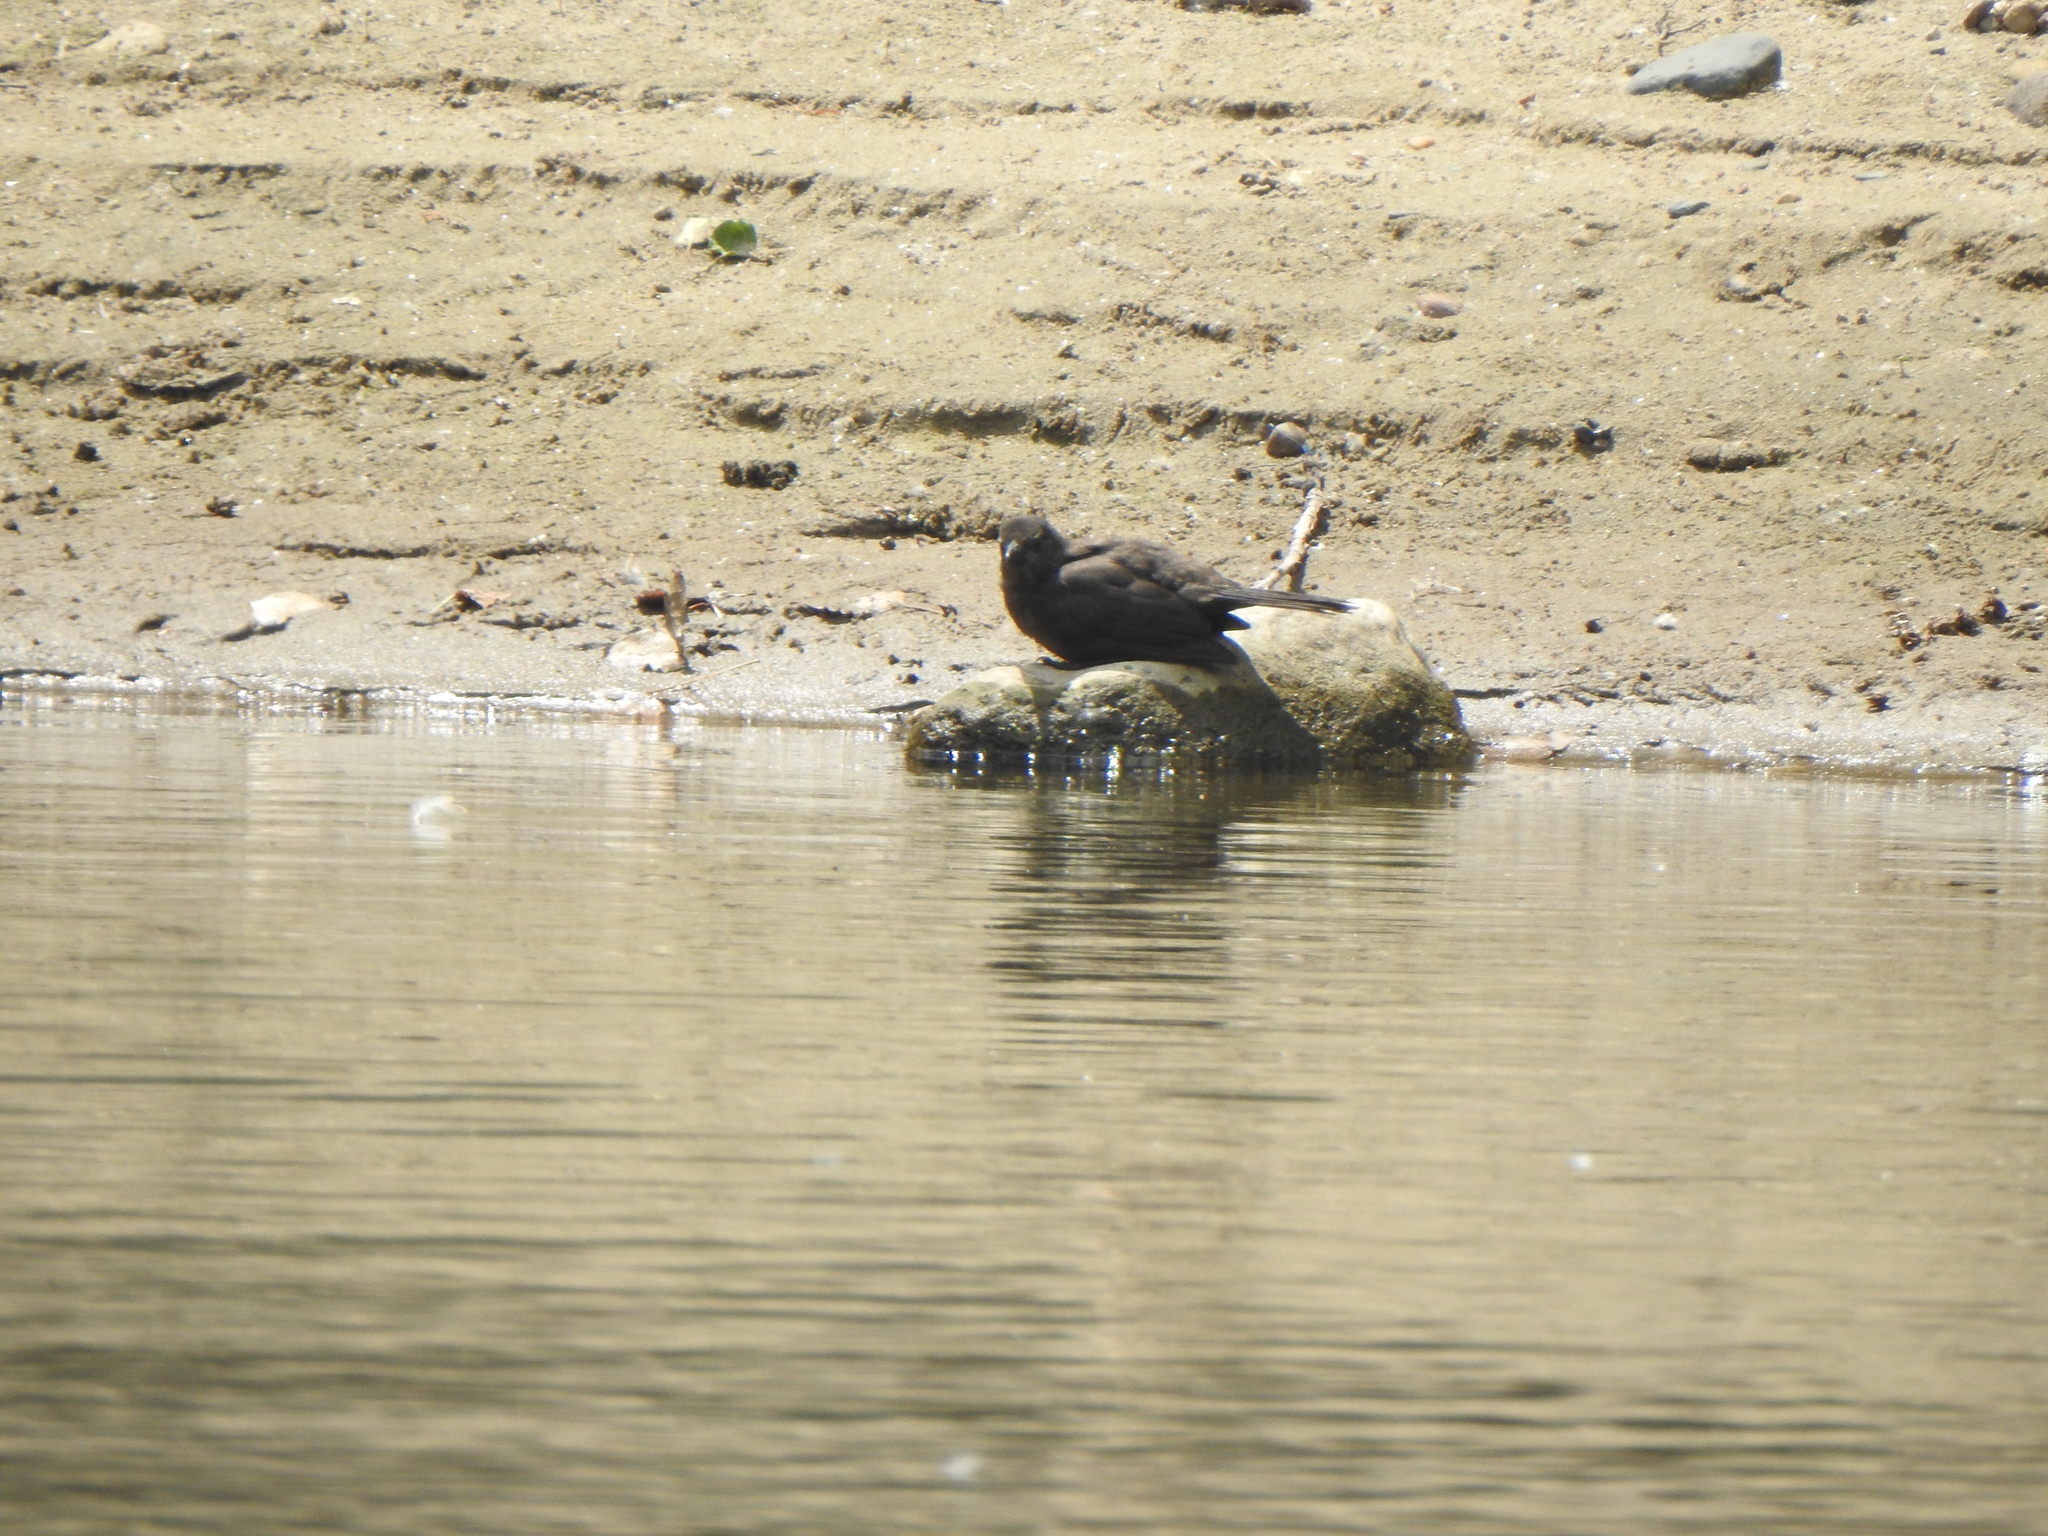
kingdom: Animalia
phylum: Chordata
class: Aves
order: Passeriformes
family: Icteridae
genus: Quiscalus
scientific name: Quiscalus quiscula
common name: Common grackle
